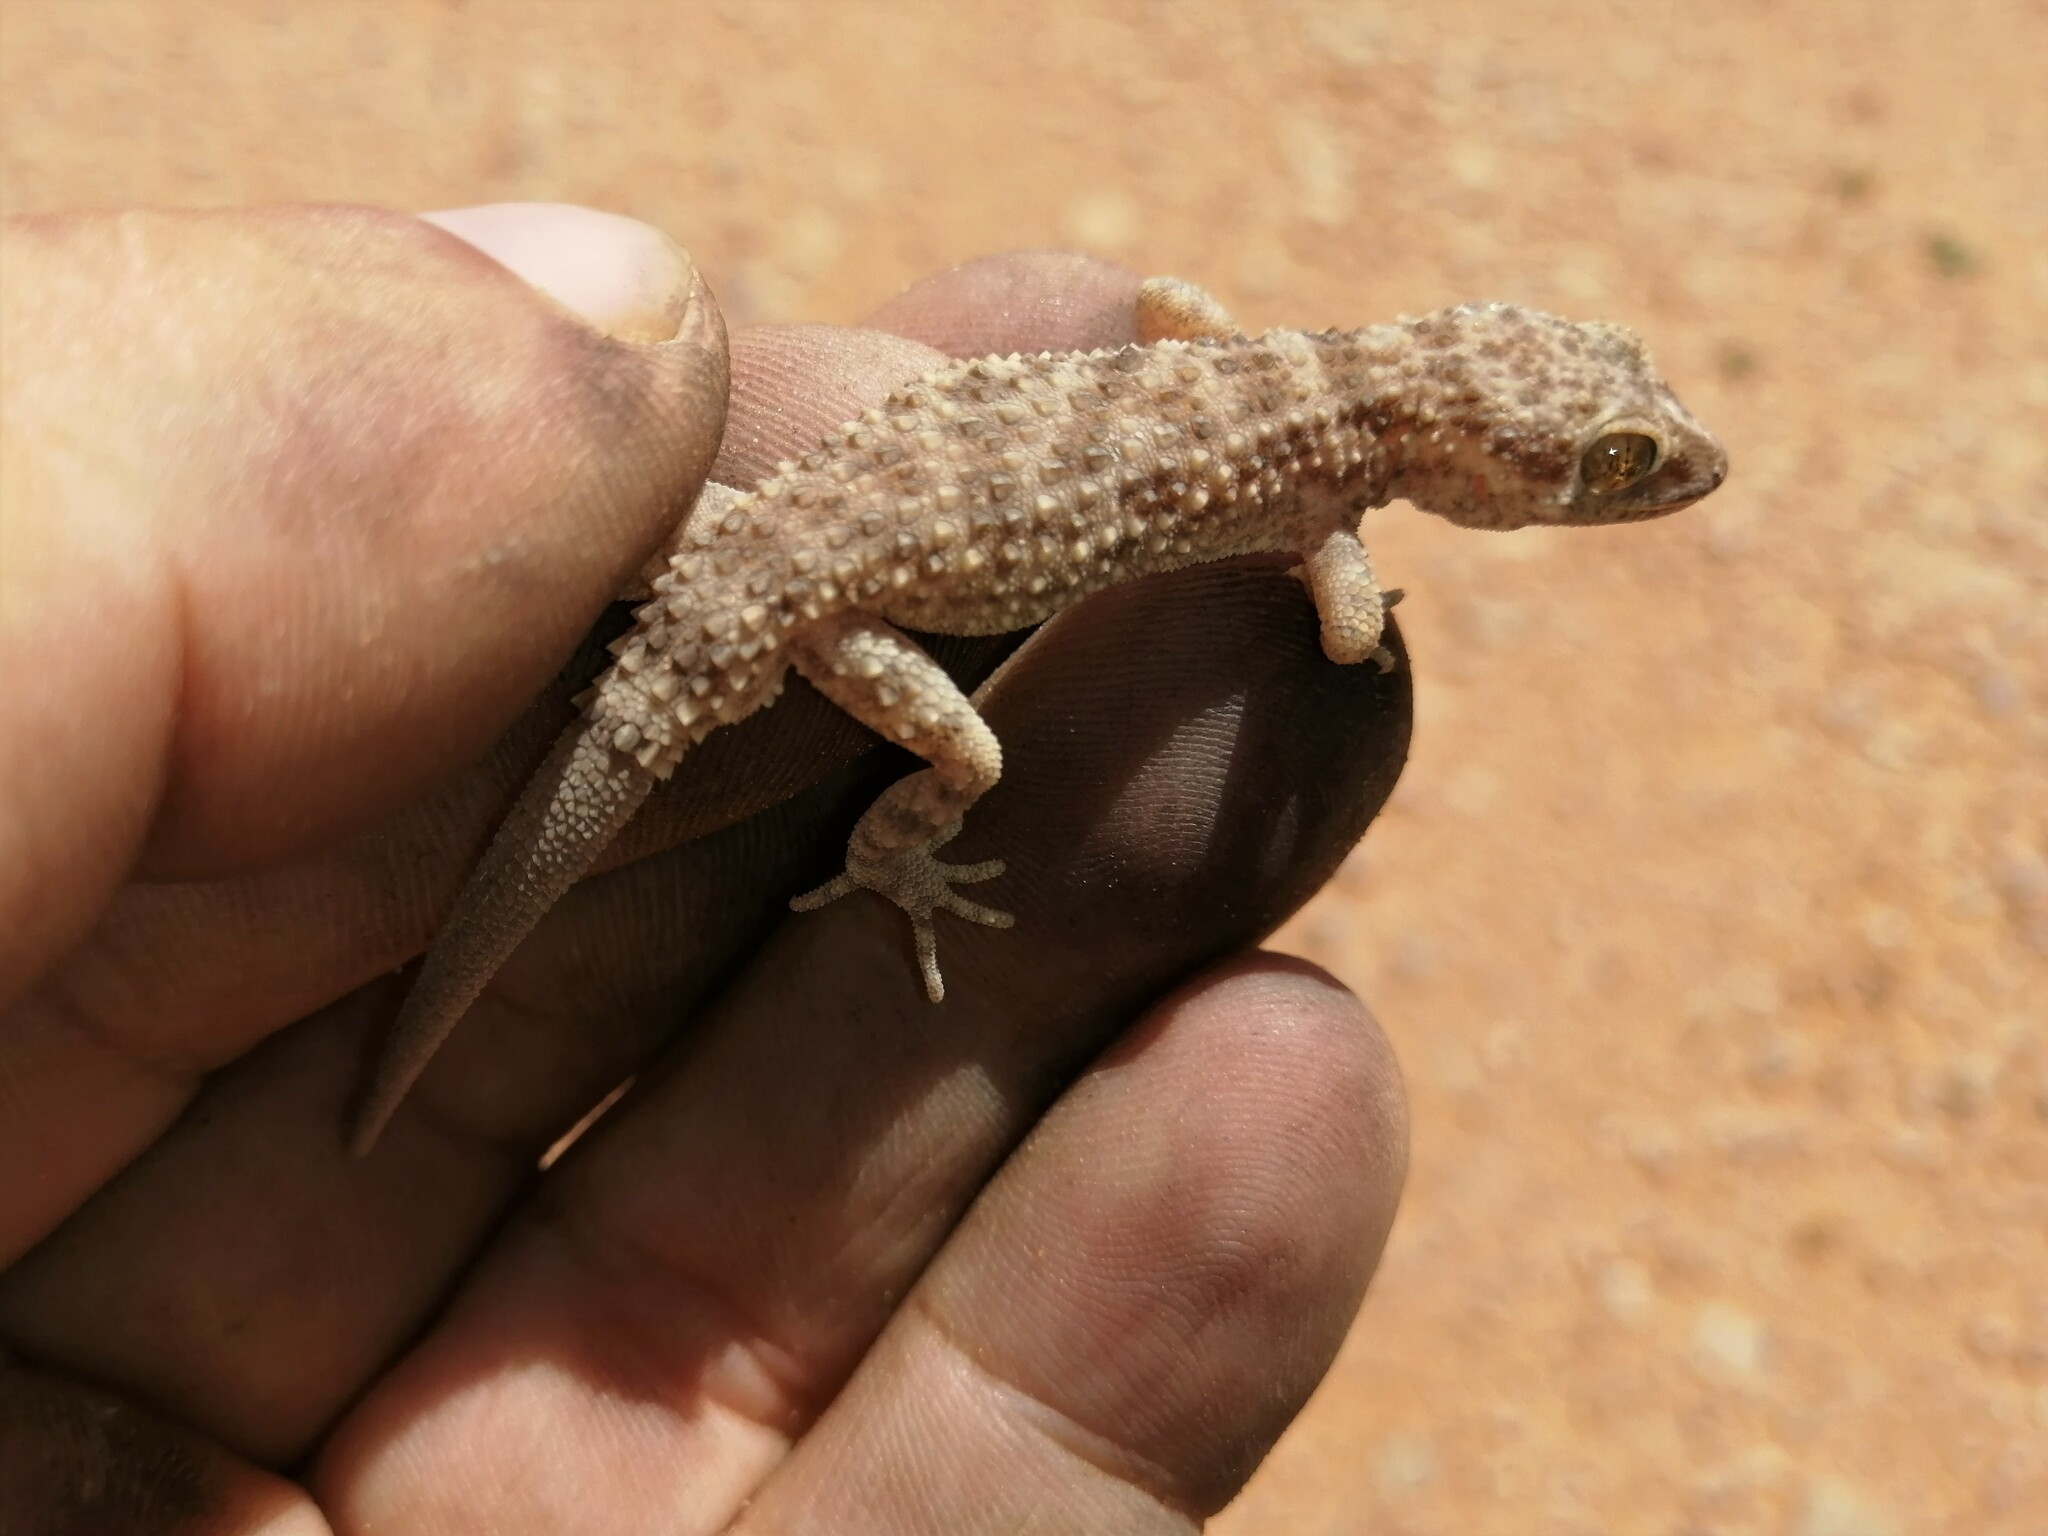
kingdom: Animalia
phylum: Chordata
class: Squamata
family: Gekkonidae
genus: Bunopus
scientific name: Bunopus tuberculatus
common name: Southern tuberculated gecko
